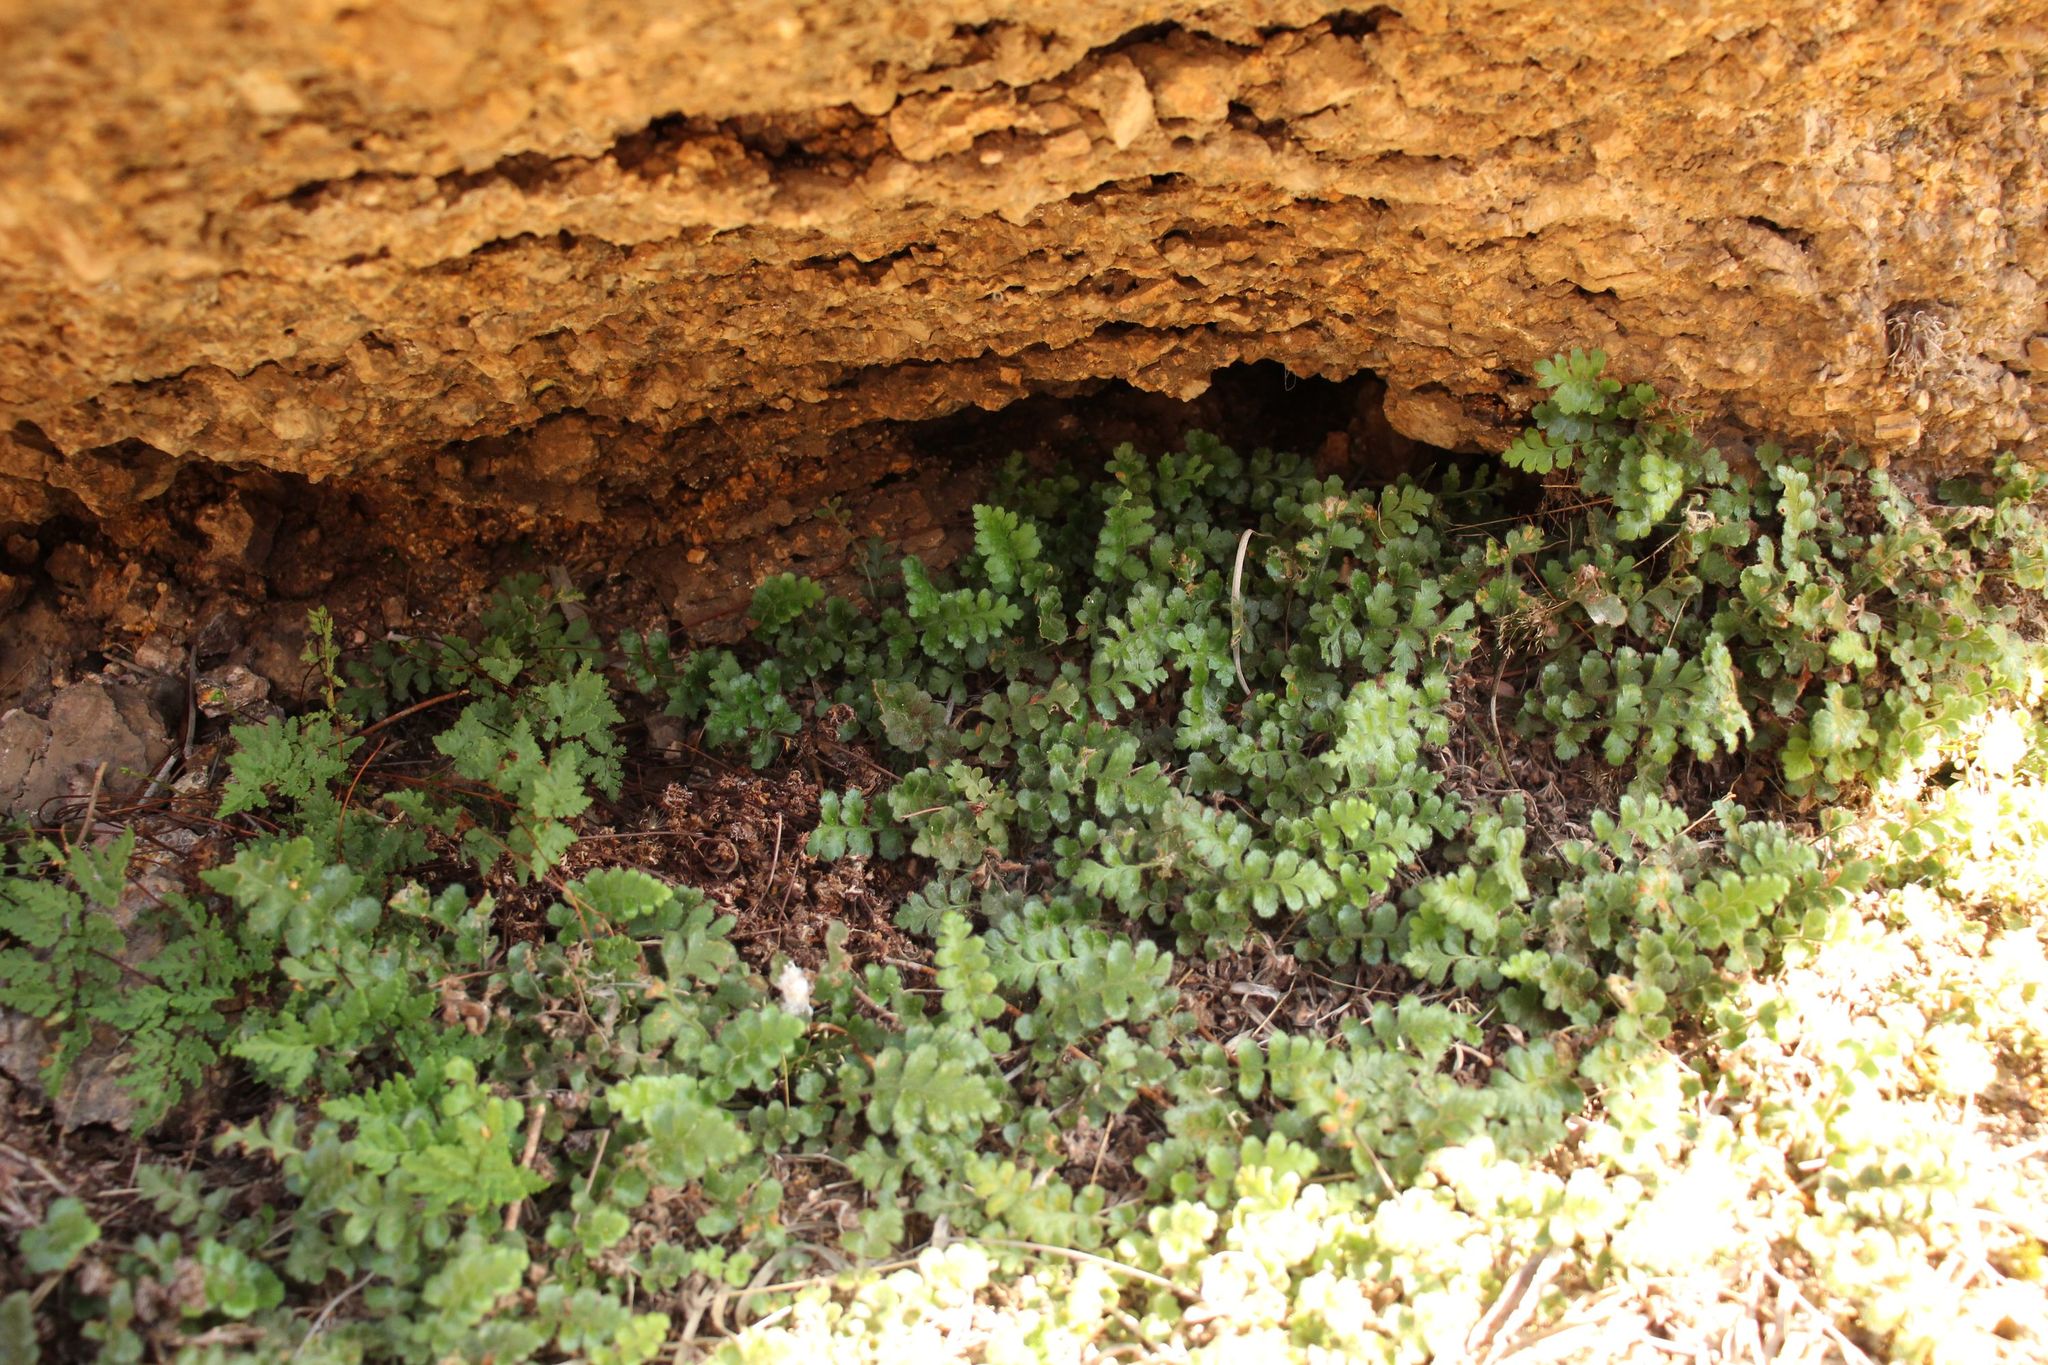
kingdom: Plantae
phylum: Tracheophyta
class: Polypodiopsida
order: Polypodiales
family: Aspleniaceae
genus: Asplenium
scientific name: Asplenium subglandulosum
